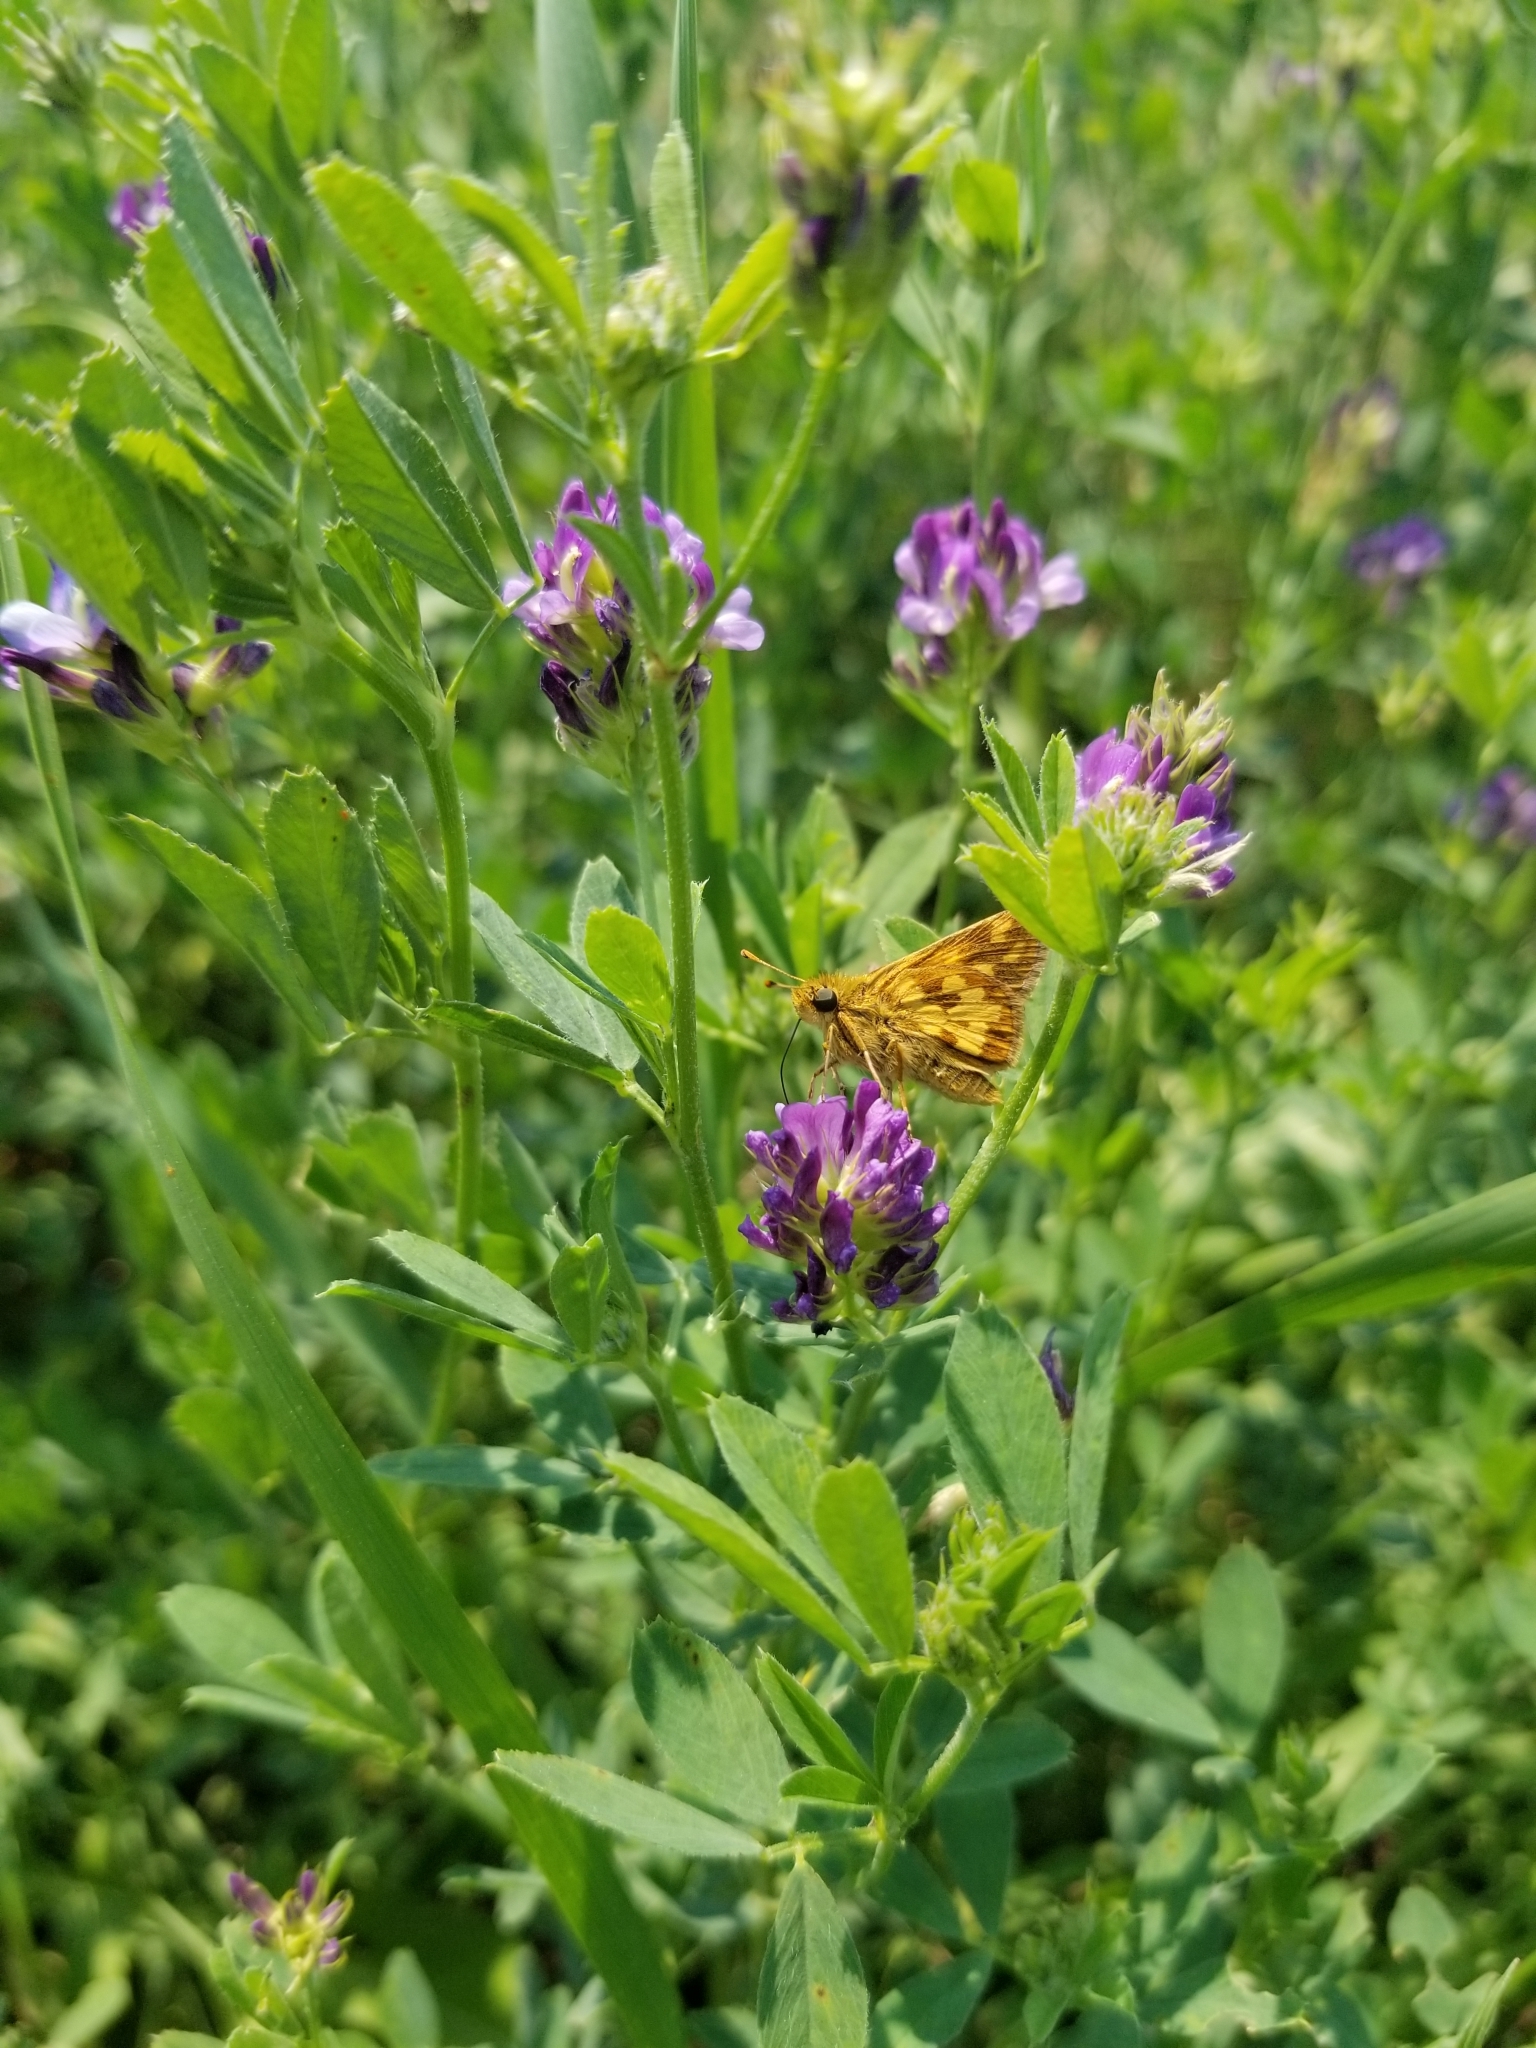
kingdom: Animalia
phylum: Arthropoda
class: Insecta
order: Lepidoptera
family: Hesperiidae
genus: Polites
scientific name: Polites coras
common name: Peck's skipper
